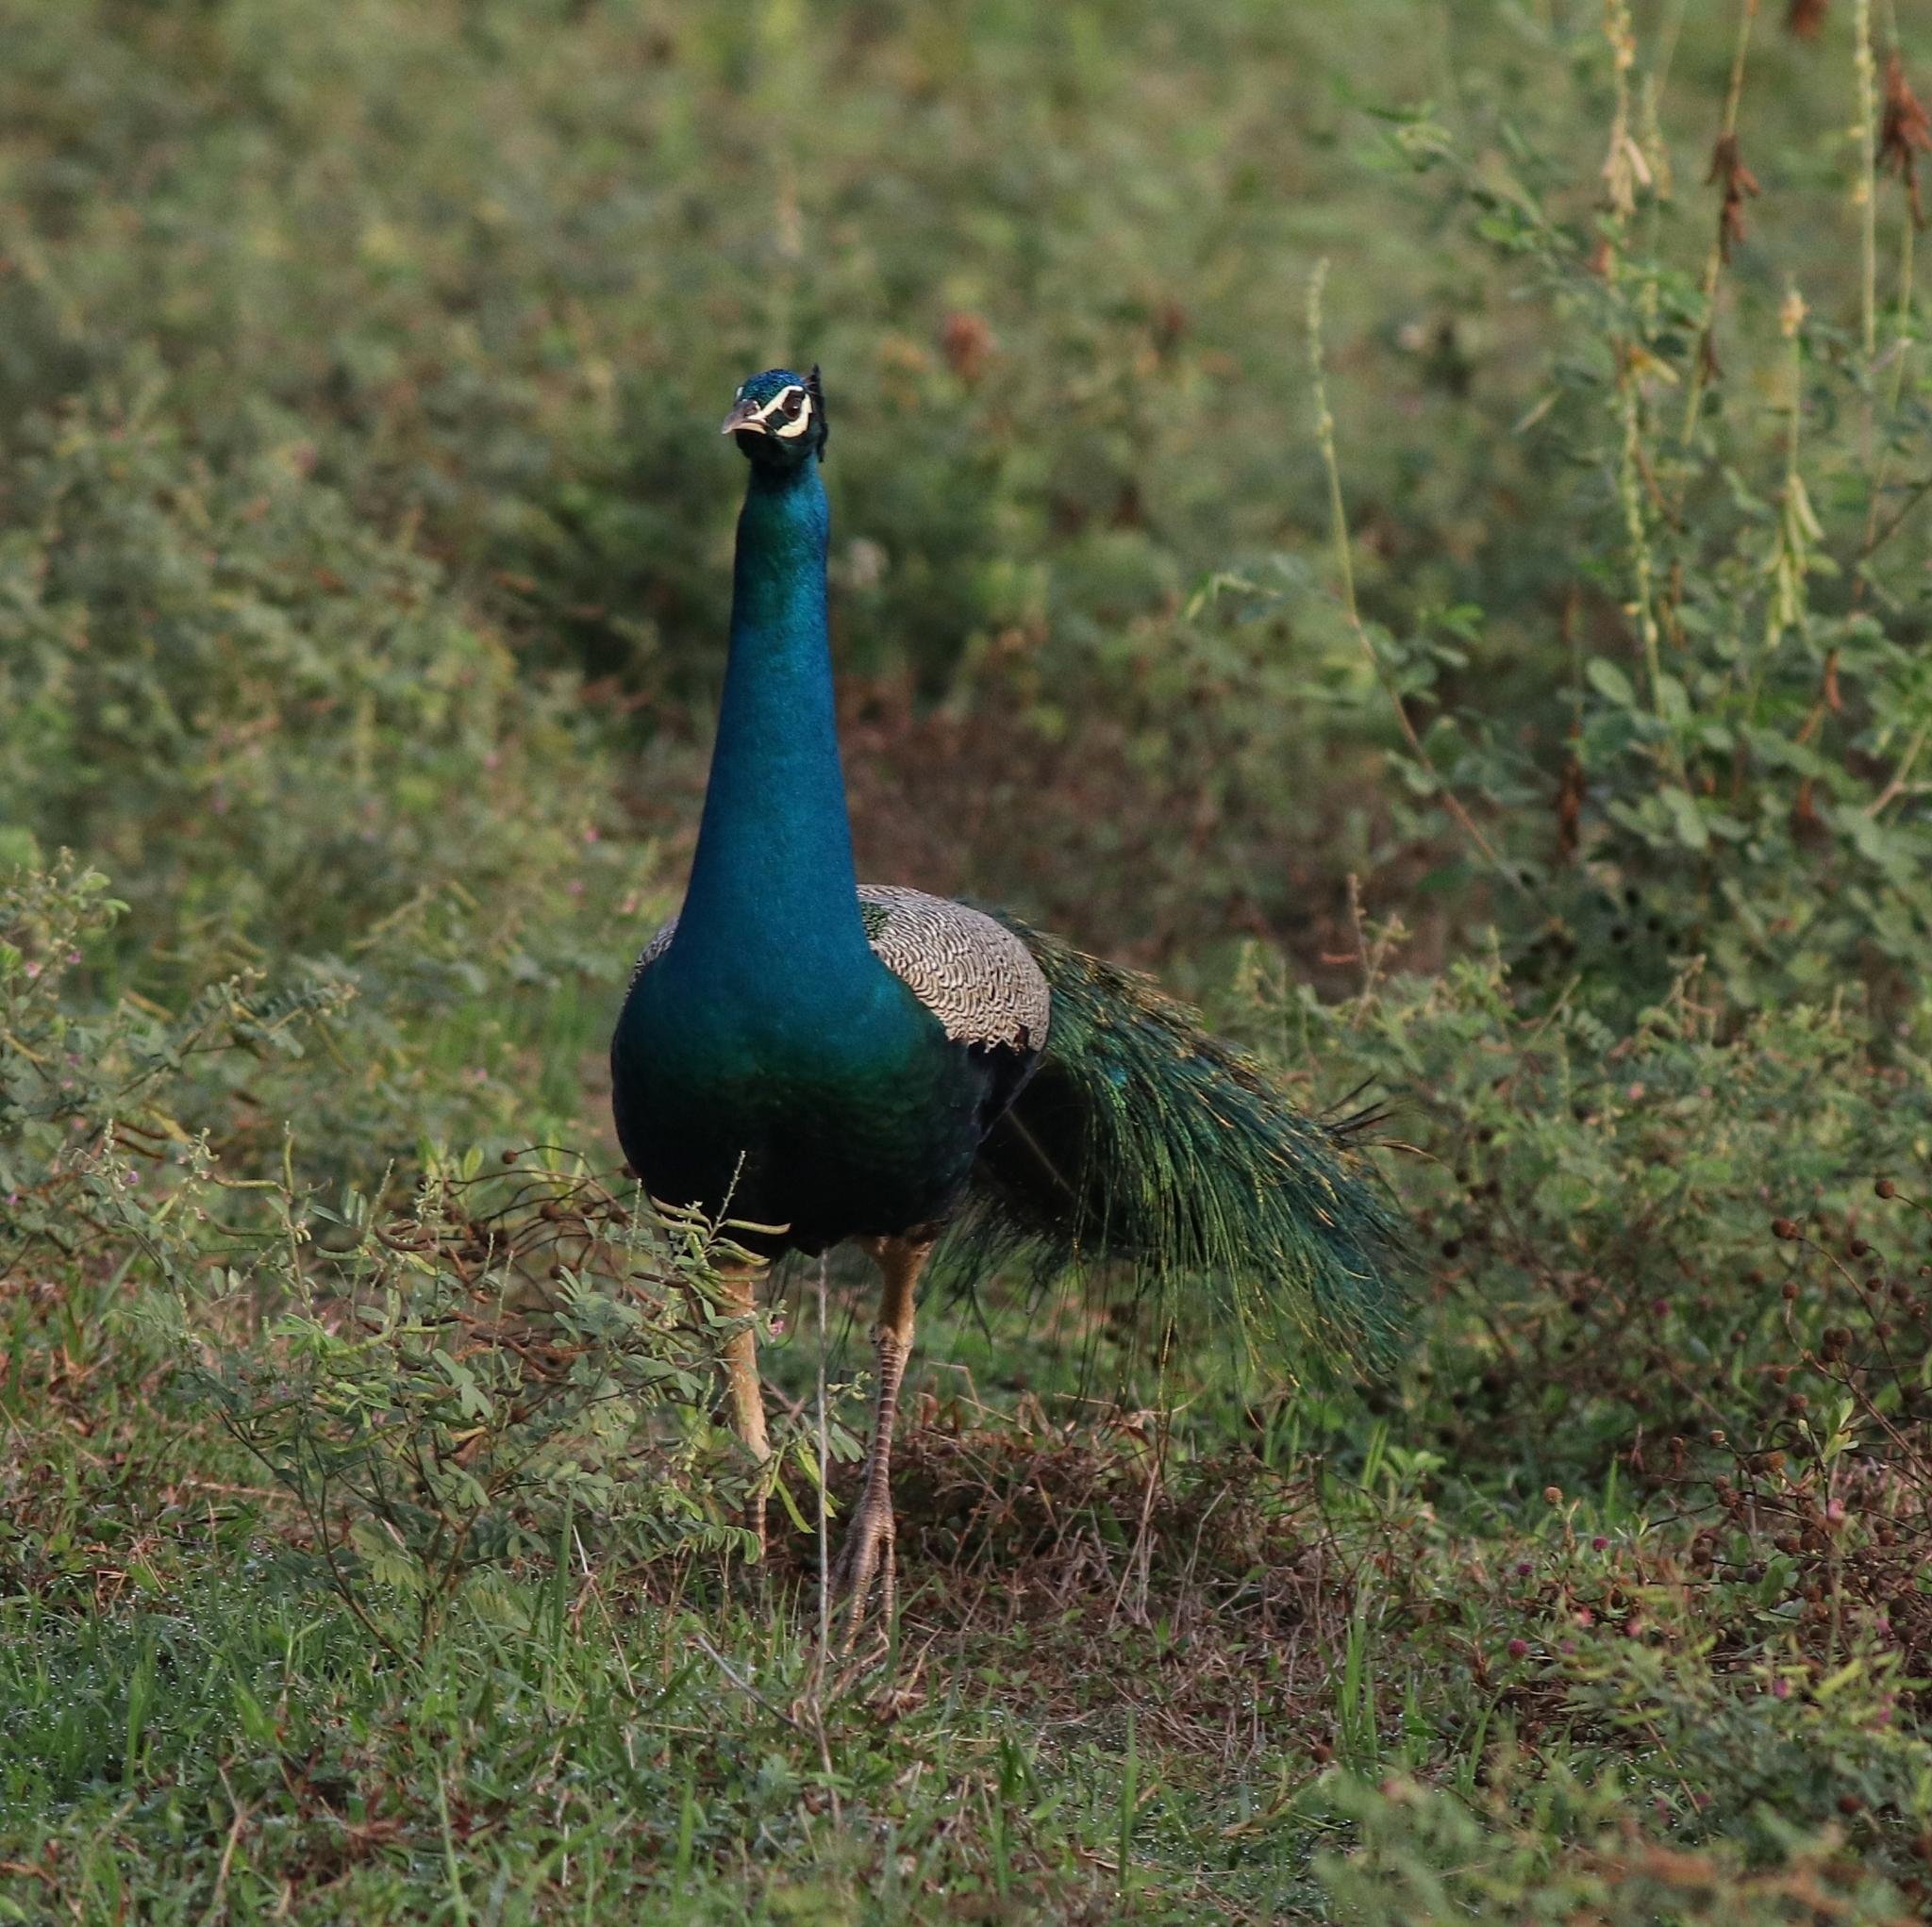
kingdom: Animalia
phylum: Chordata
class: Aves
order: Galliformes
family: Phasianidae
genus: Pavo
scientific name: Pavo cristatus
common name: Indian peafowl
